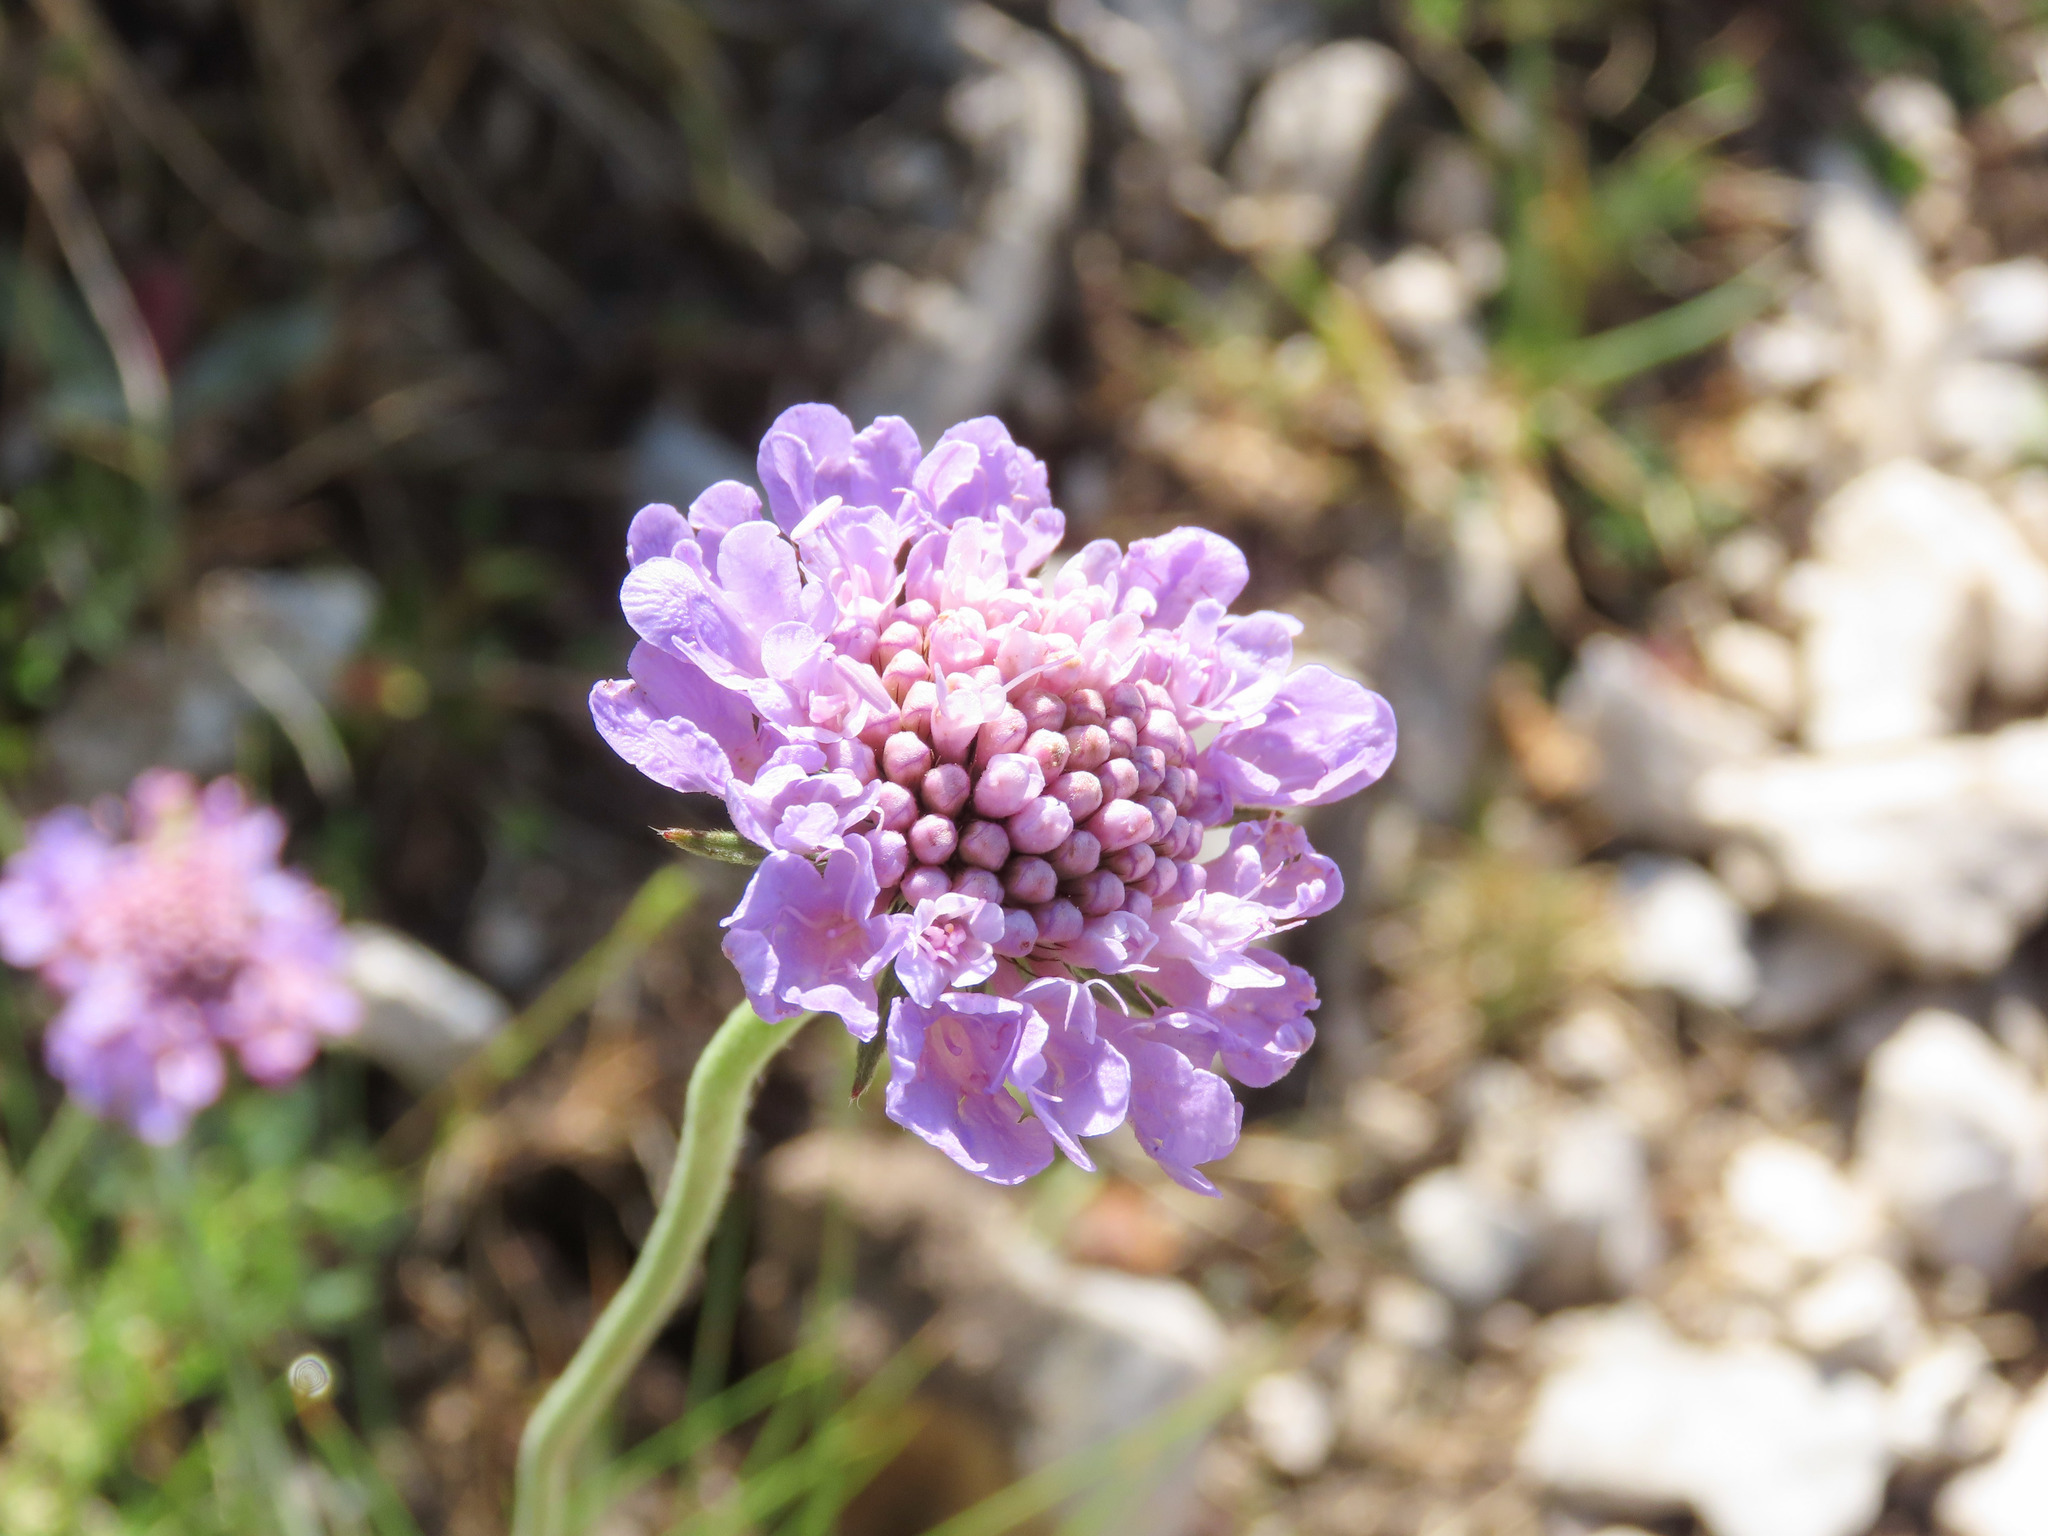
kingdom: Plantae
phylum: Tracheophyta
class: Magnoliopsida
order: Dipsacales
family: Caprifoliaceae
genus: Scabiosa
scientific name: Scabiosa pyrenaica
